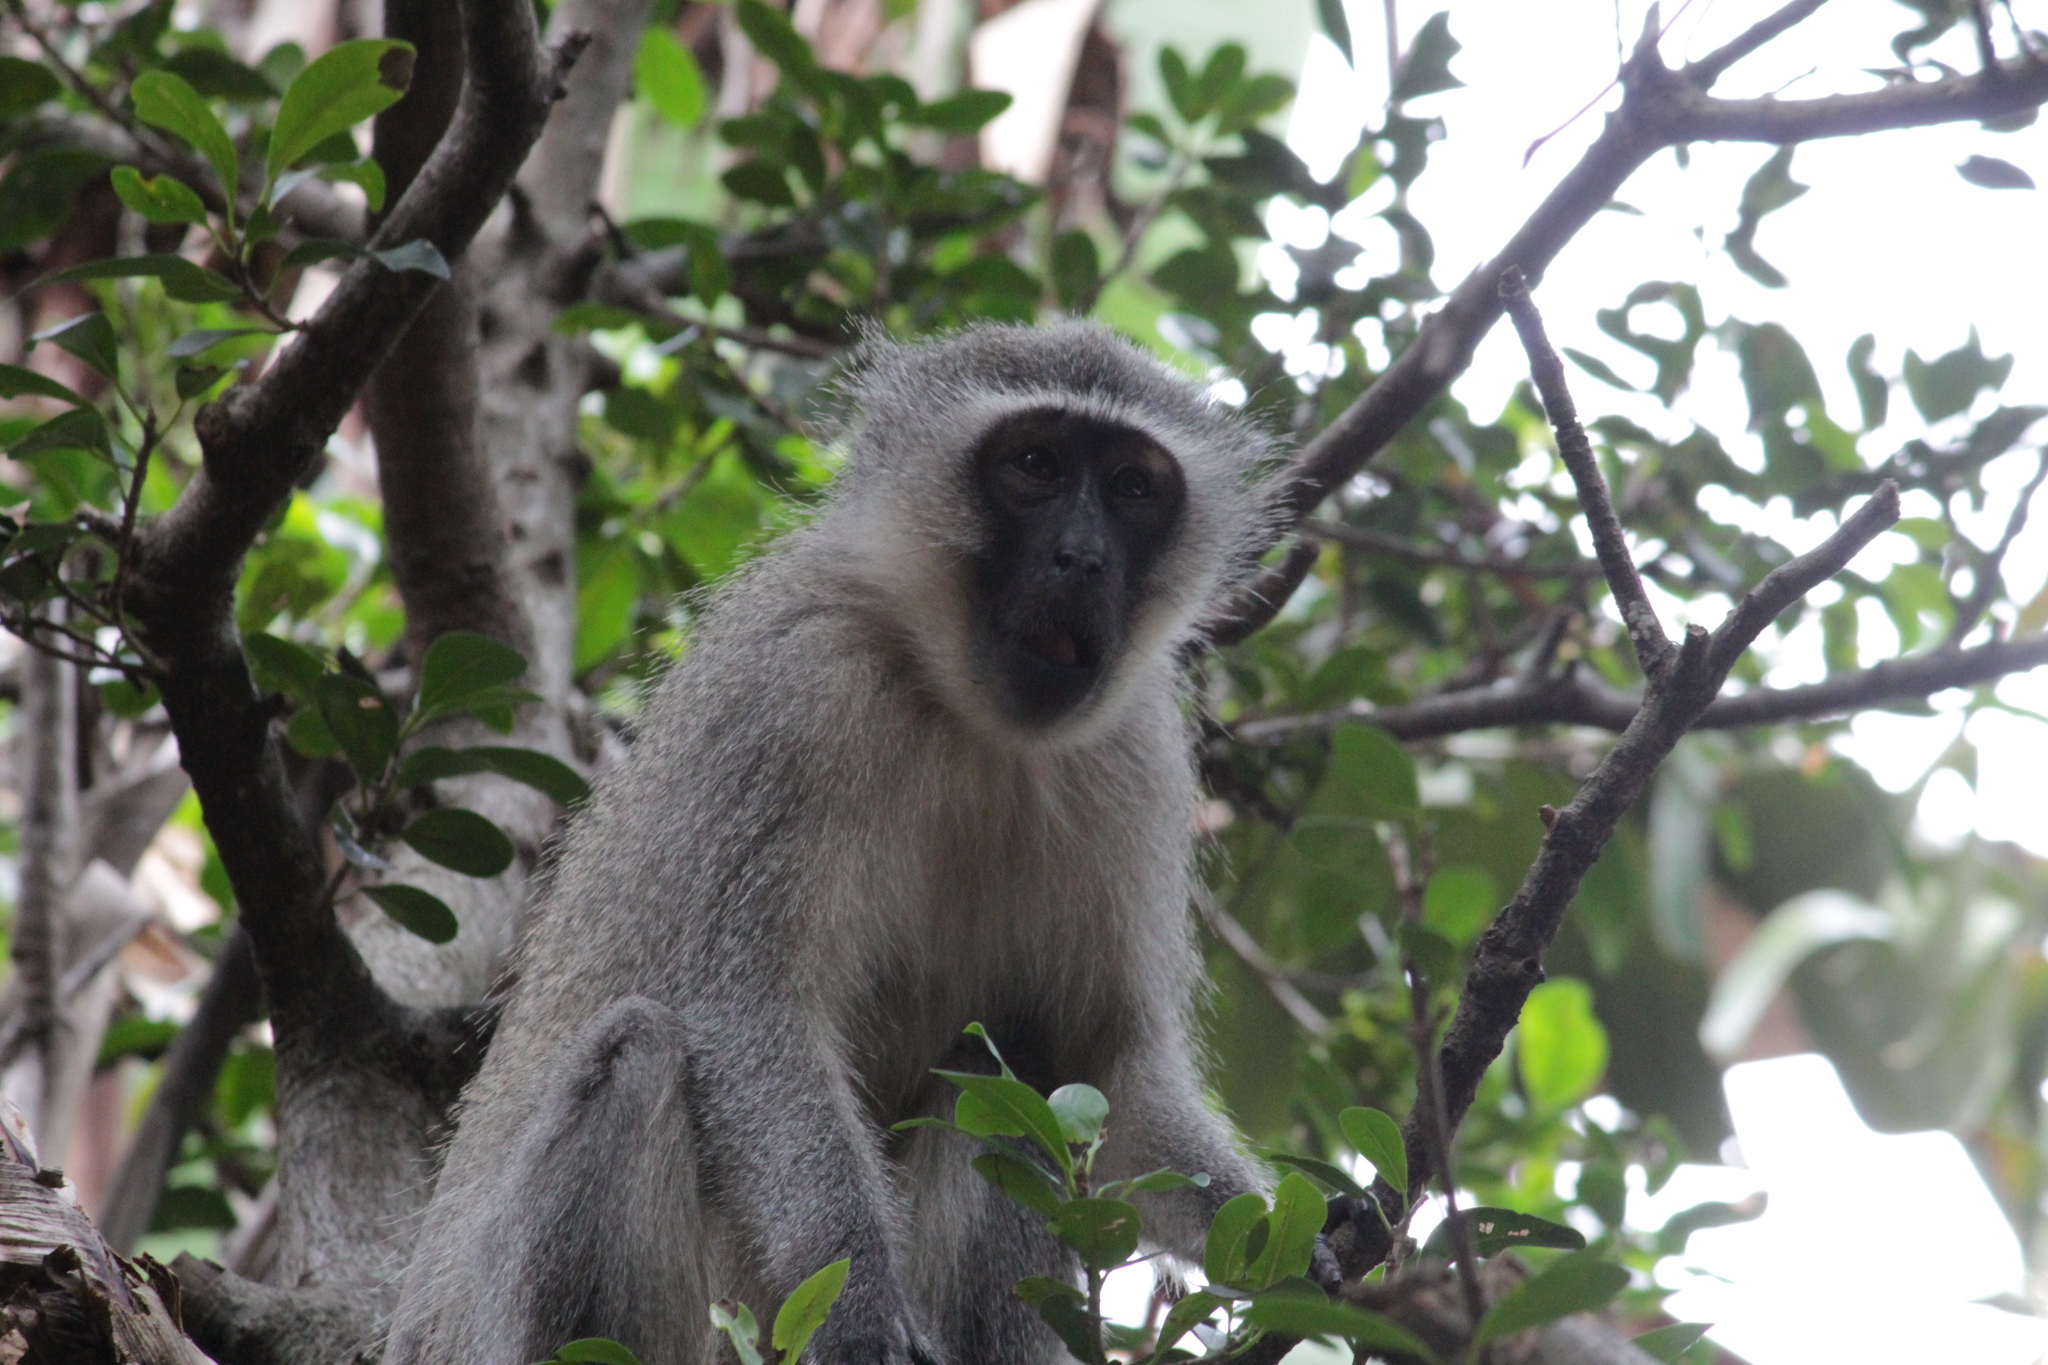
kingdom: Animalia
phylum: Chordata
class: Mammalia
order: Primates
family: Cercopithecidae
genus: Chlorocebus
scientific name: Chlorocebus pygerythrus
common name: Vervet monkey
